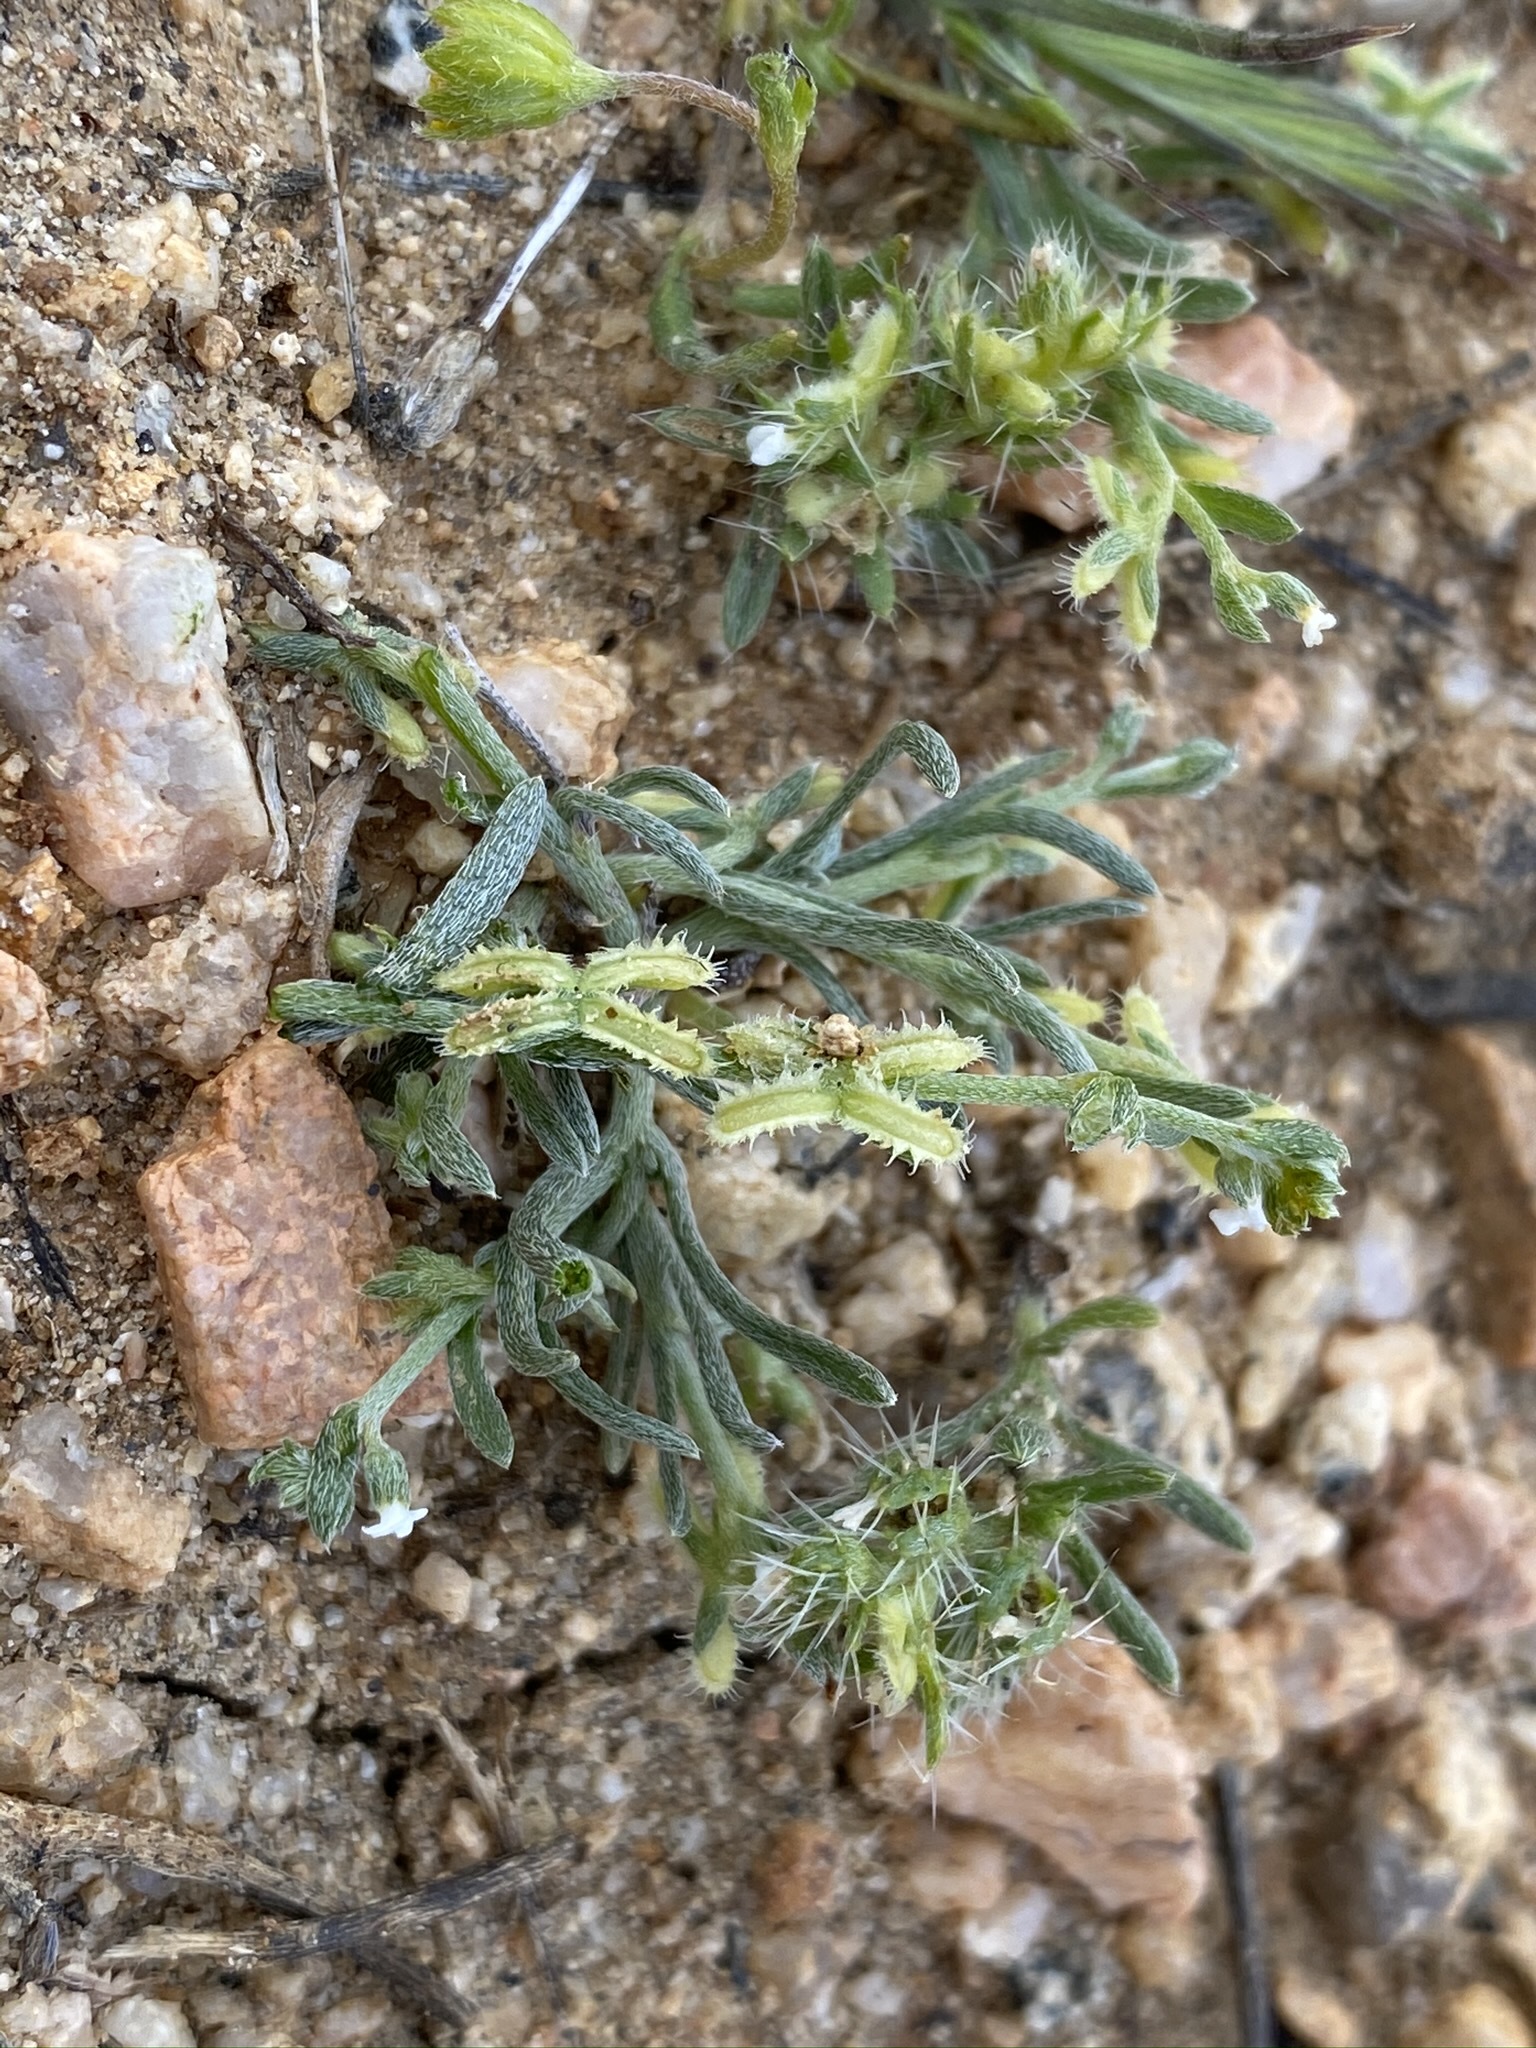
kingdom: Plantae
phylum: Tracheophyta
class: Magnoliopsida
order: Boraginales
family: Boraginaceae
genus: Pectocarya
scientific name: Pectocarya linearis
